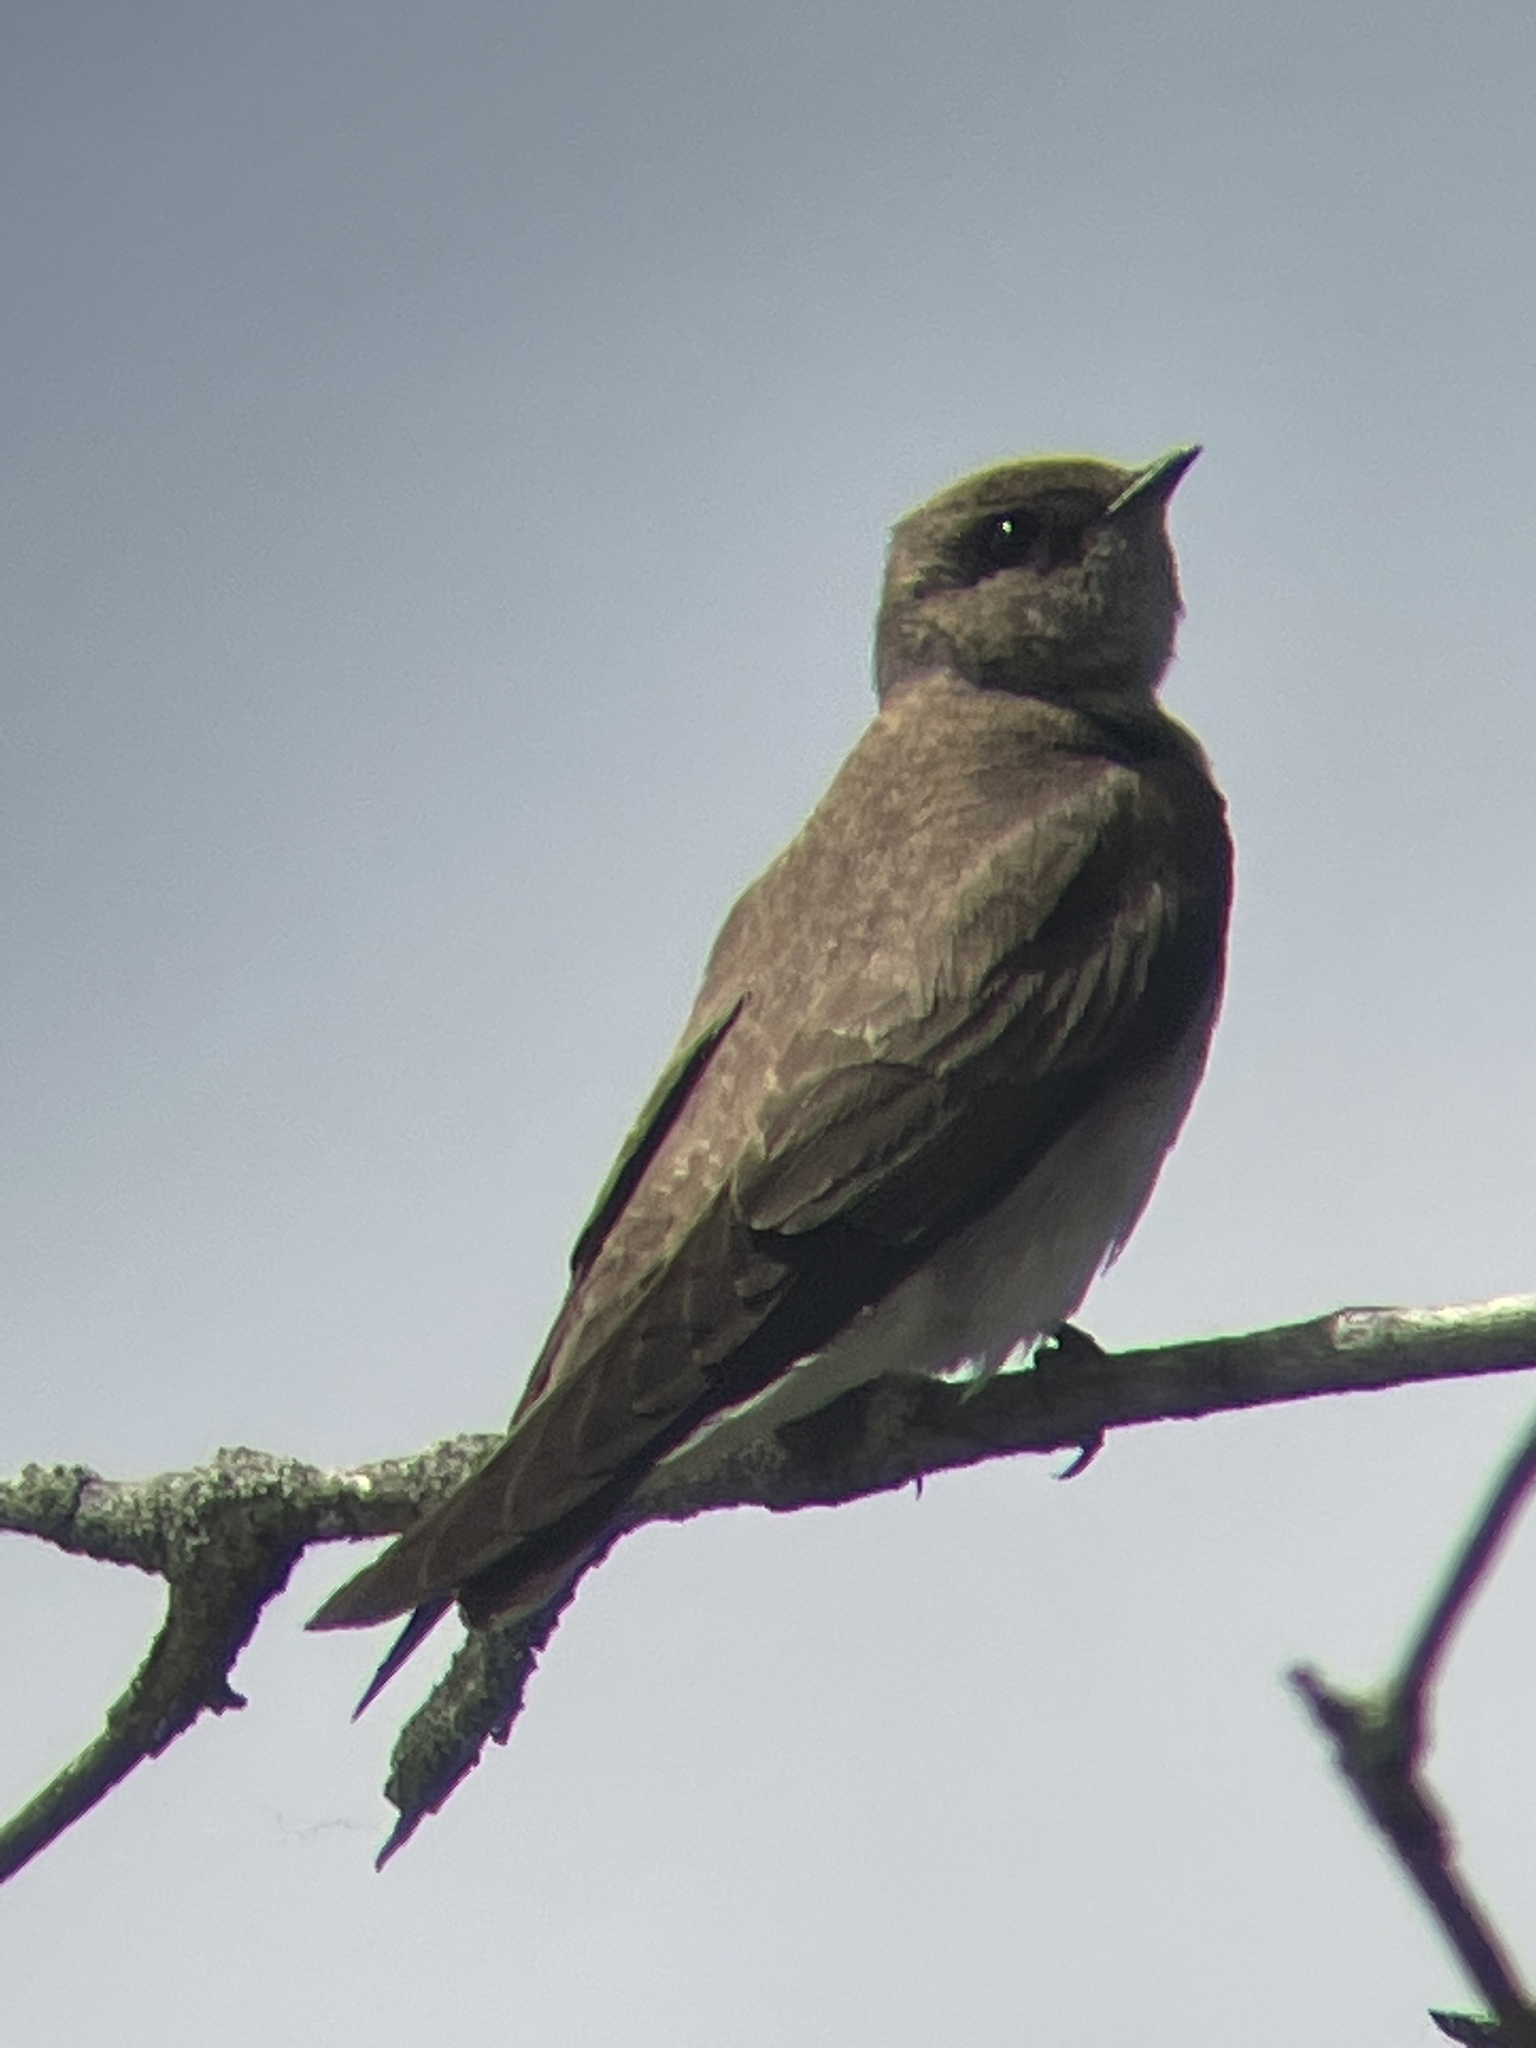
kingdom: Animalia
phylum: Chordata
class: Aves
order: Passeriformes
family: Hirundinidae
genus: Stelgidopteryx
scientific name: Stelgidopteryx serripennis
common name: Northern rough-winged swallow
